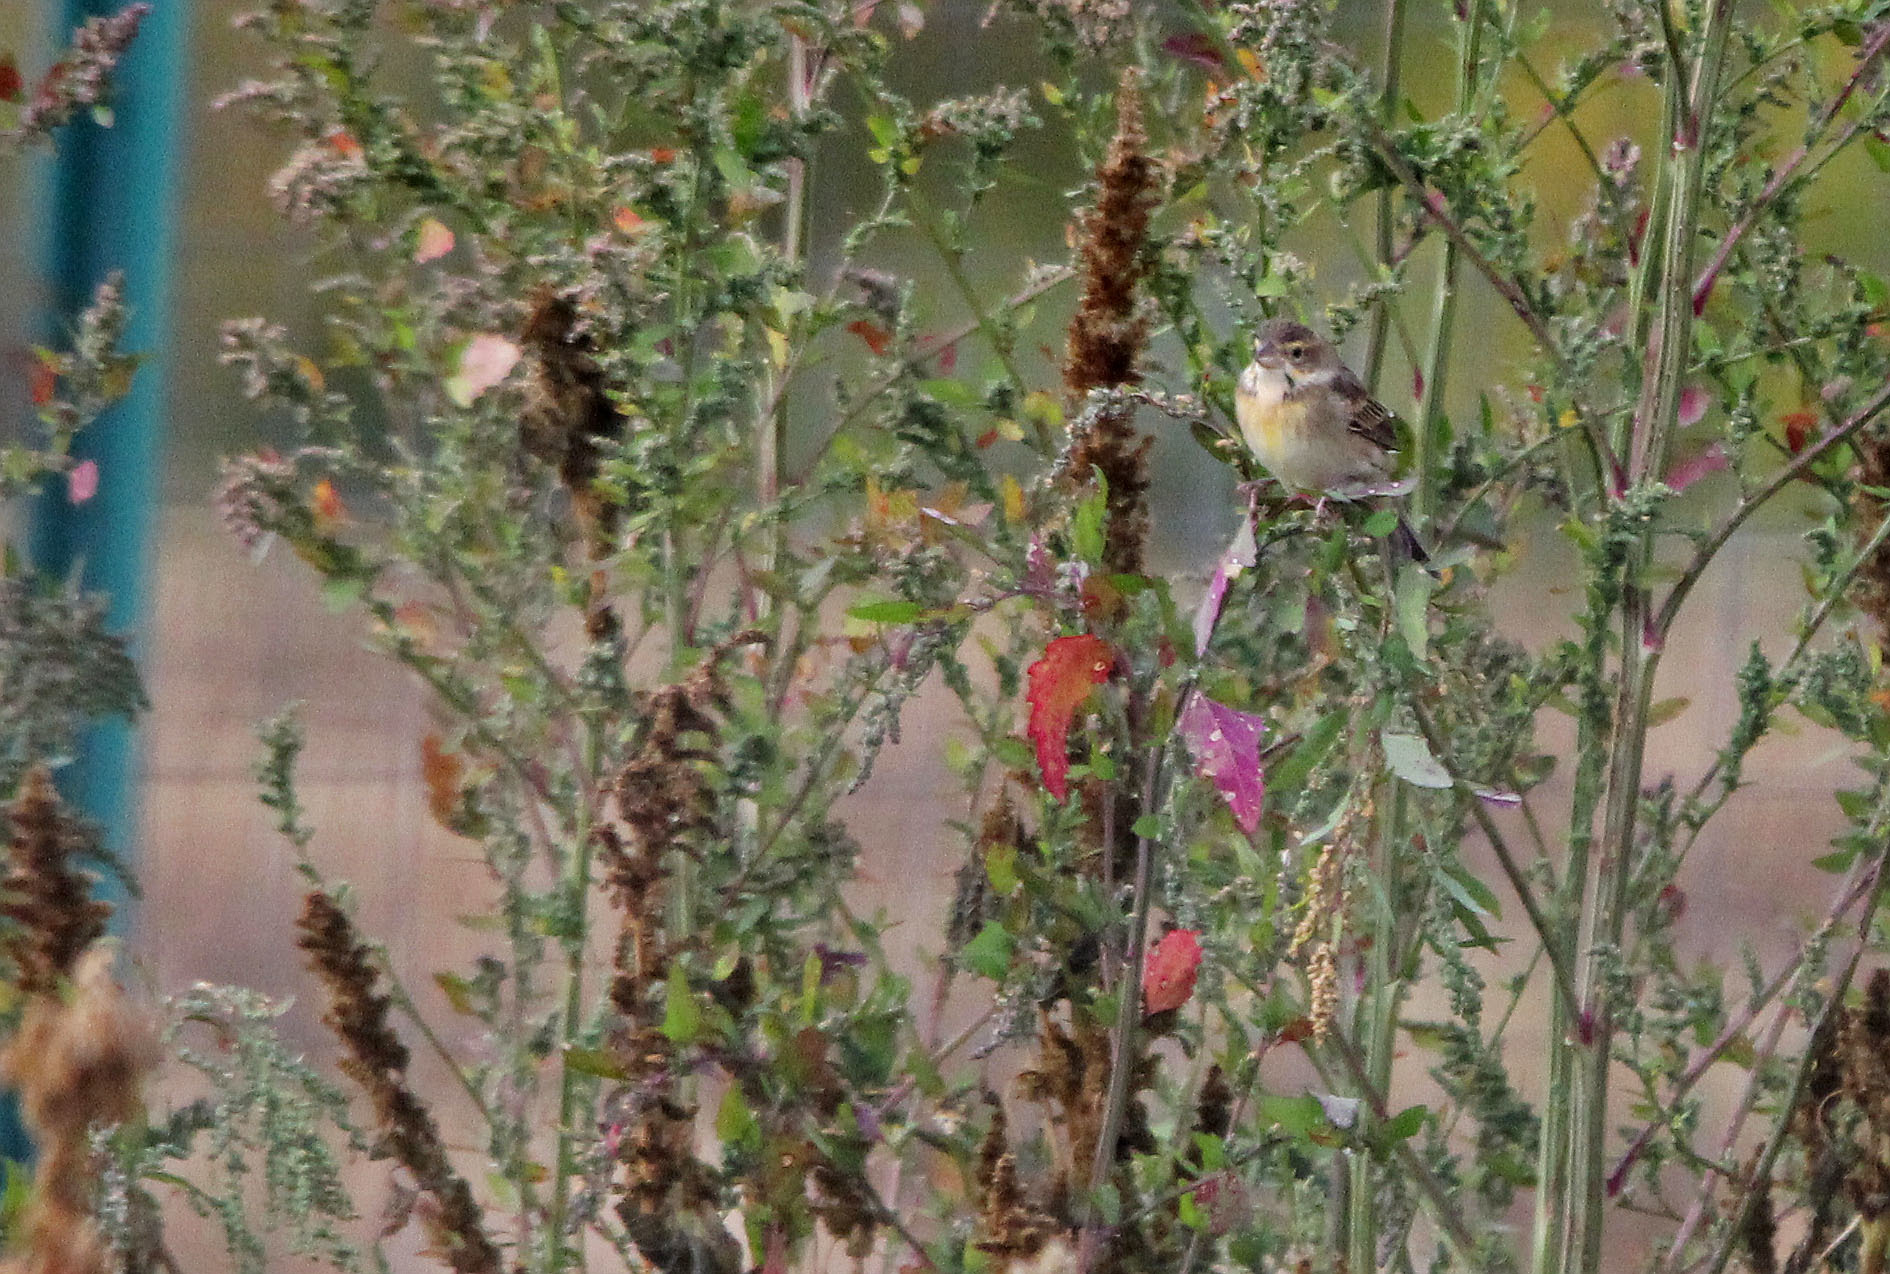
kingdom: Animalia
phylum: Chordata
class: Aves
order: Passeriformes
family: Cardinalidae
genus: Spiza
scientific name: Spiza americana
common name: Dickcissel
